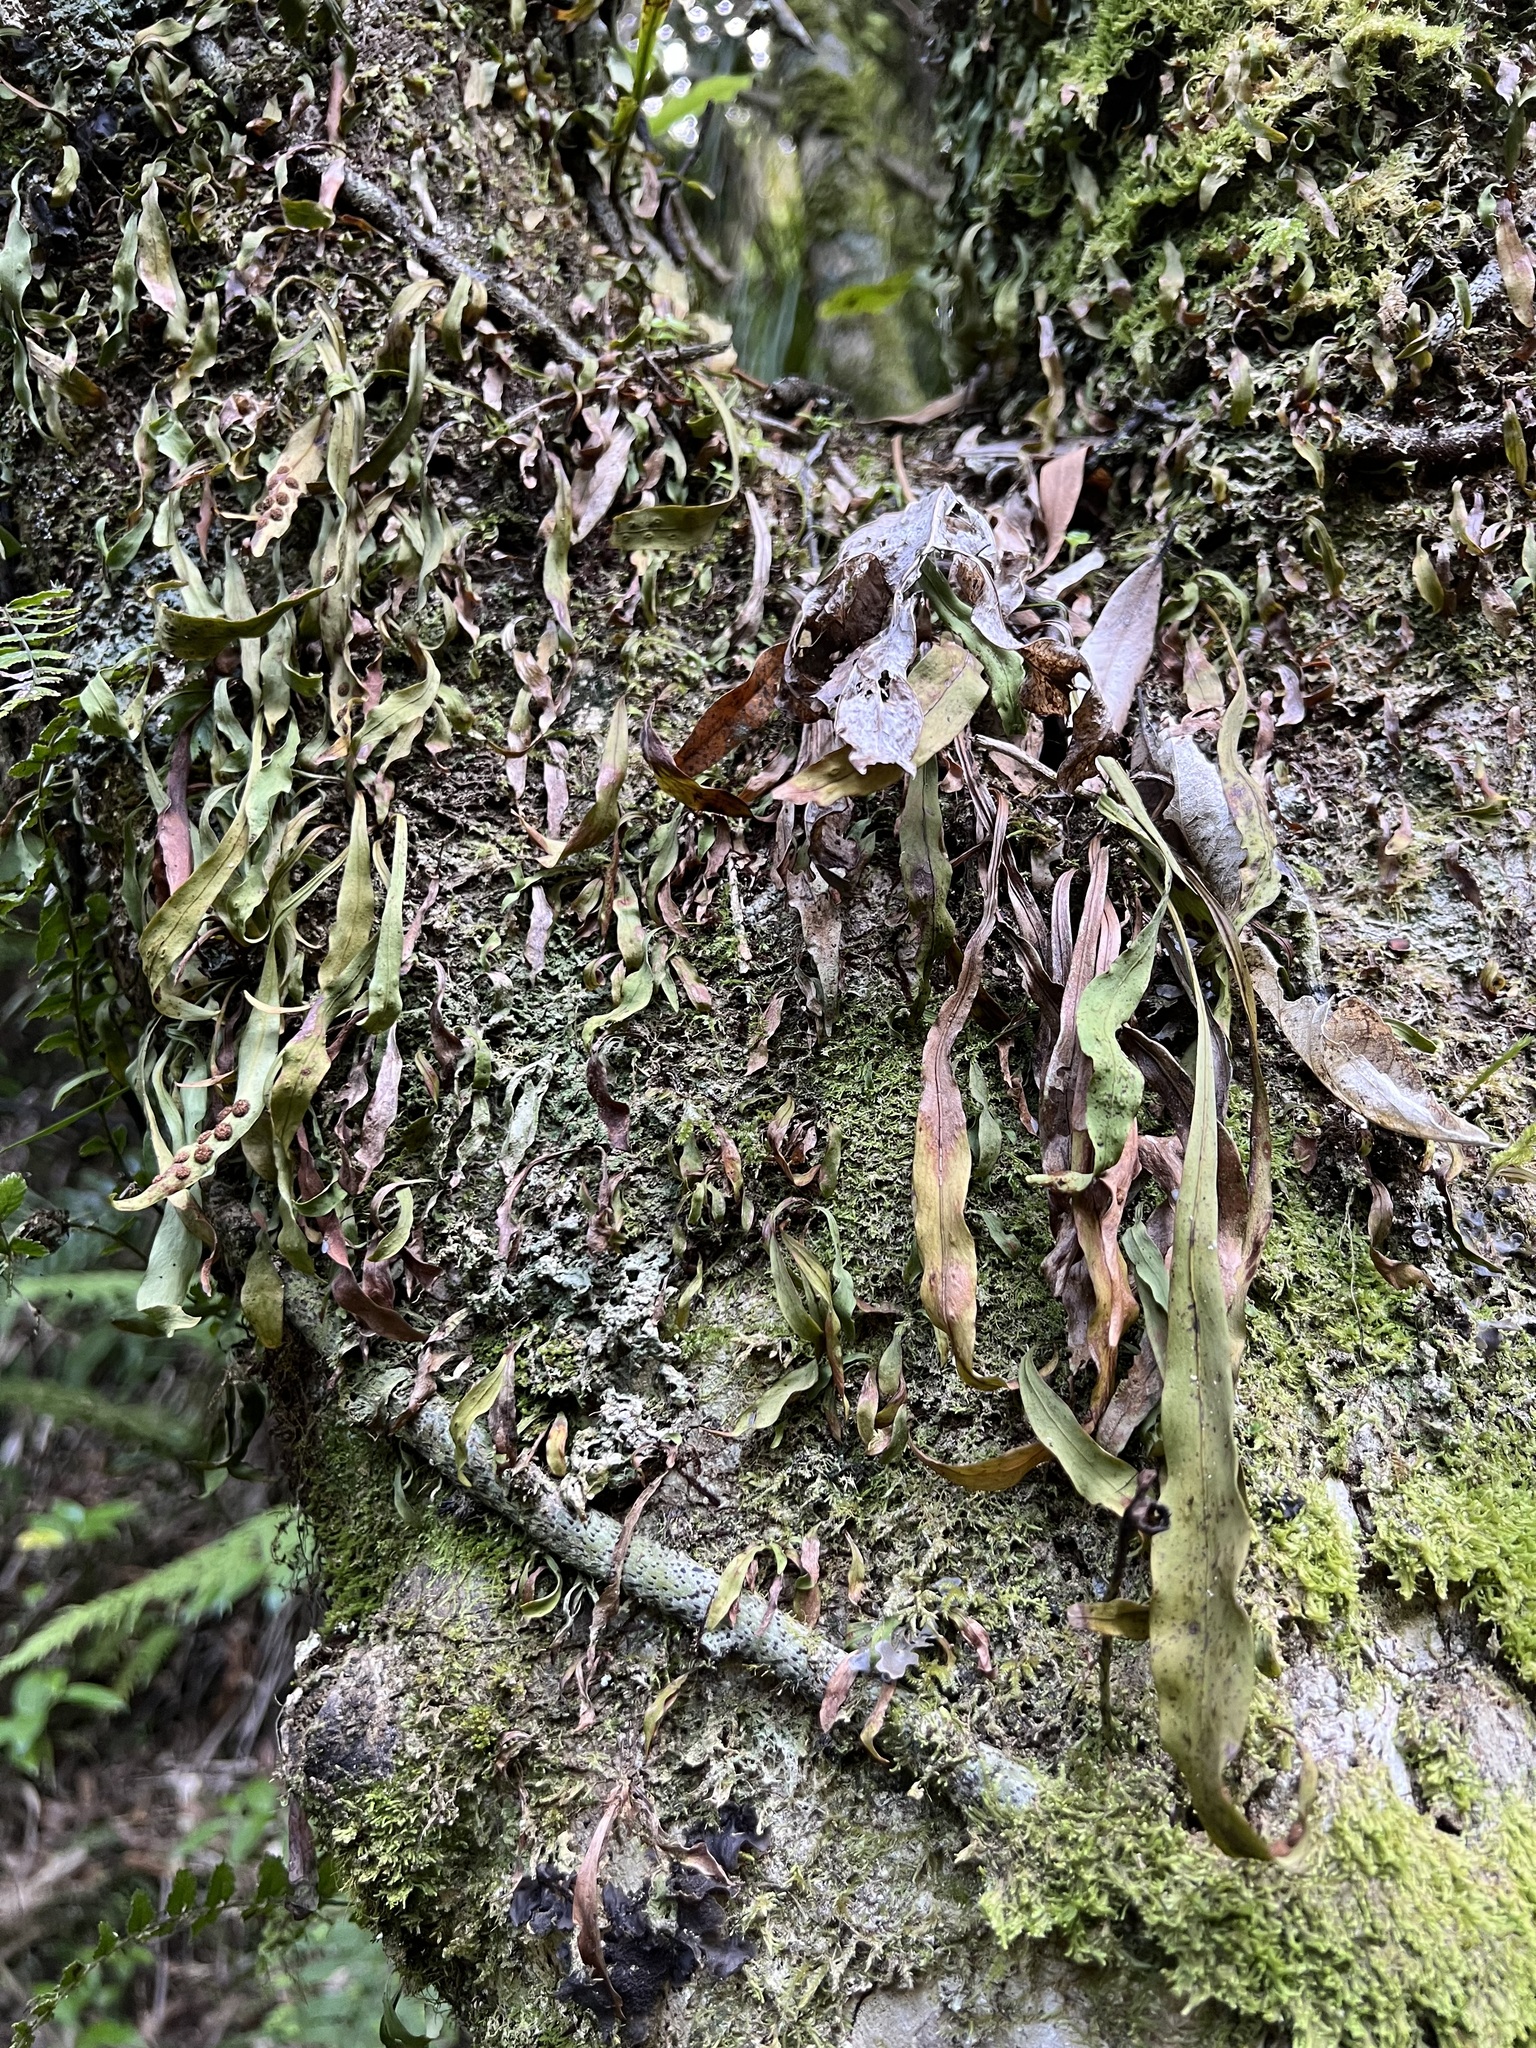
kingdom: Plantae
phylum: Tracheophyta
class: Polypodiopsida
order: Polypodiales
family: Polypodiaceae
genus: Loxogramme
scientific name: Loxogramme dictyopteris
